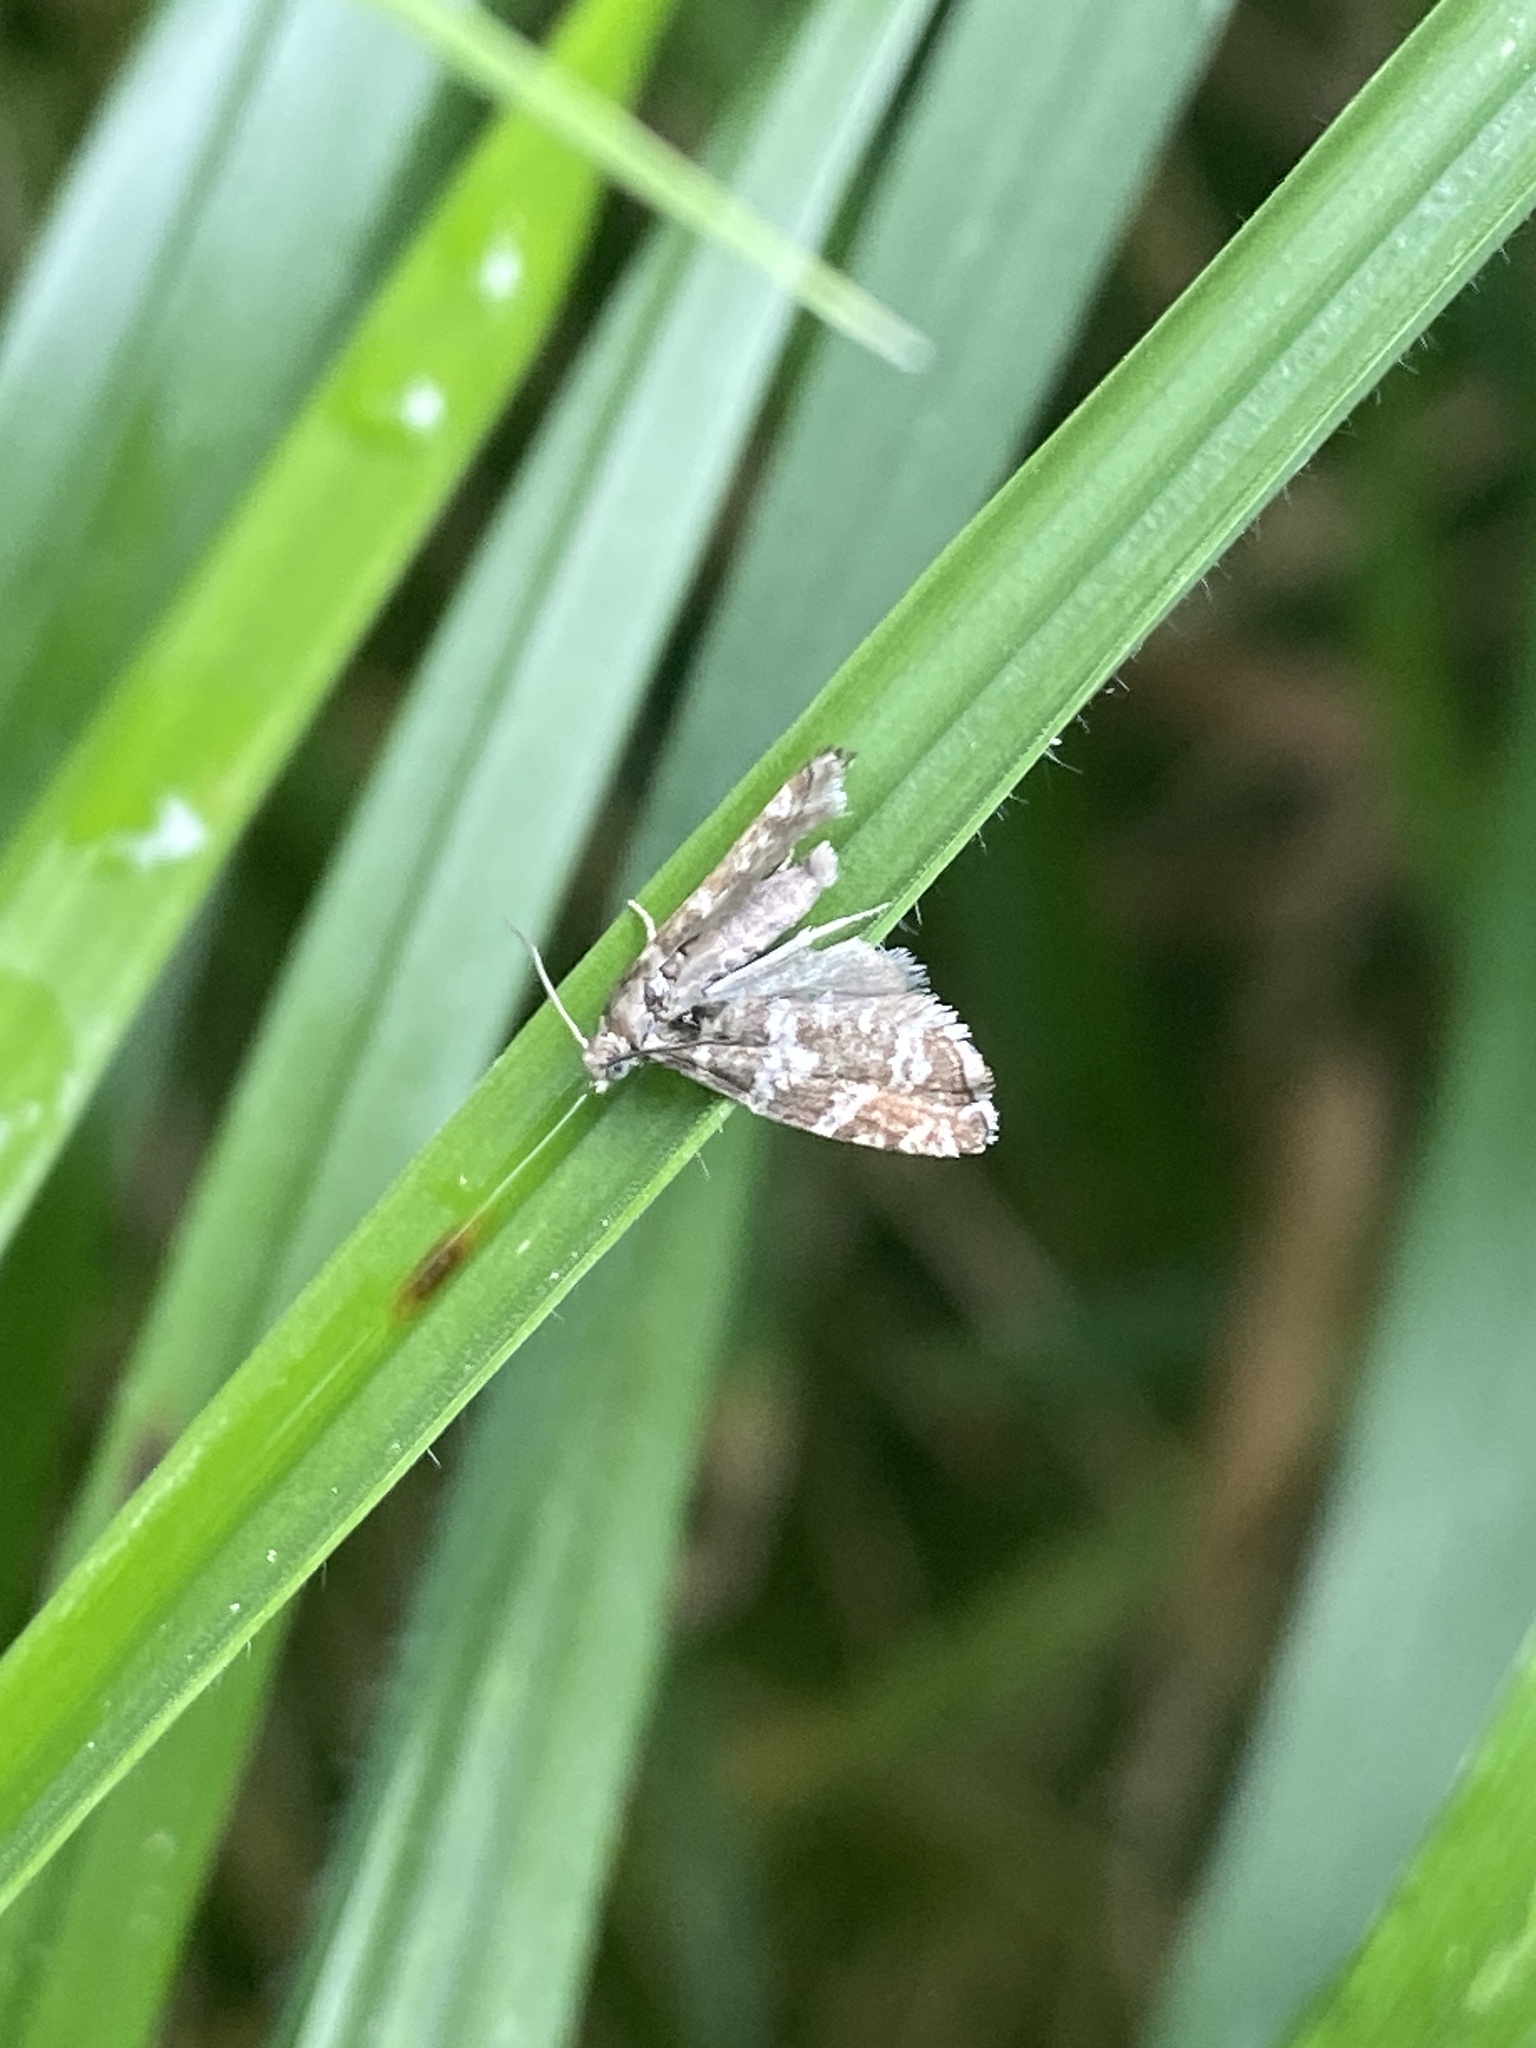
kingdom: Animalia
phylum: Arthropoda
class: Insecta
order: Lepidoptera
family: Tortricidae
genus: Epinotia
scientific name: Epinotia tedella
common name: Common spruce bell
